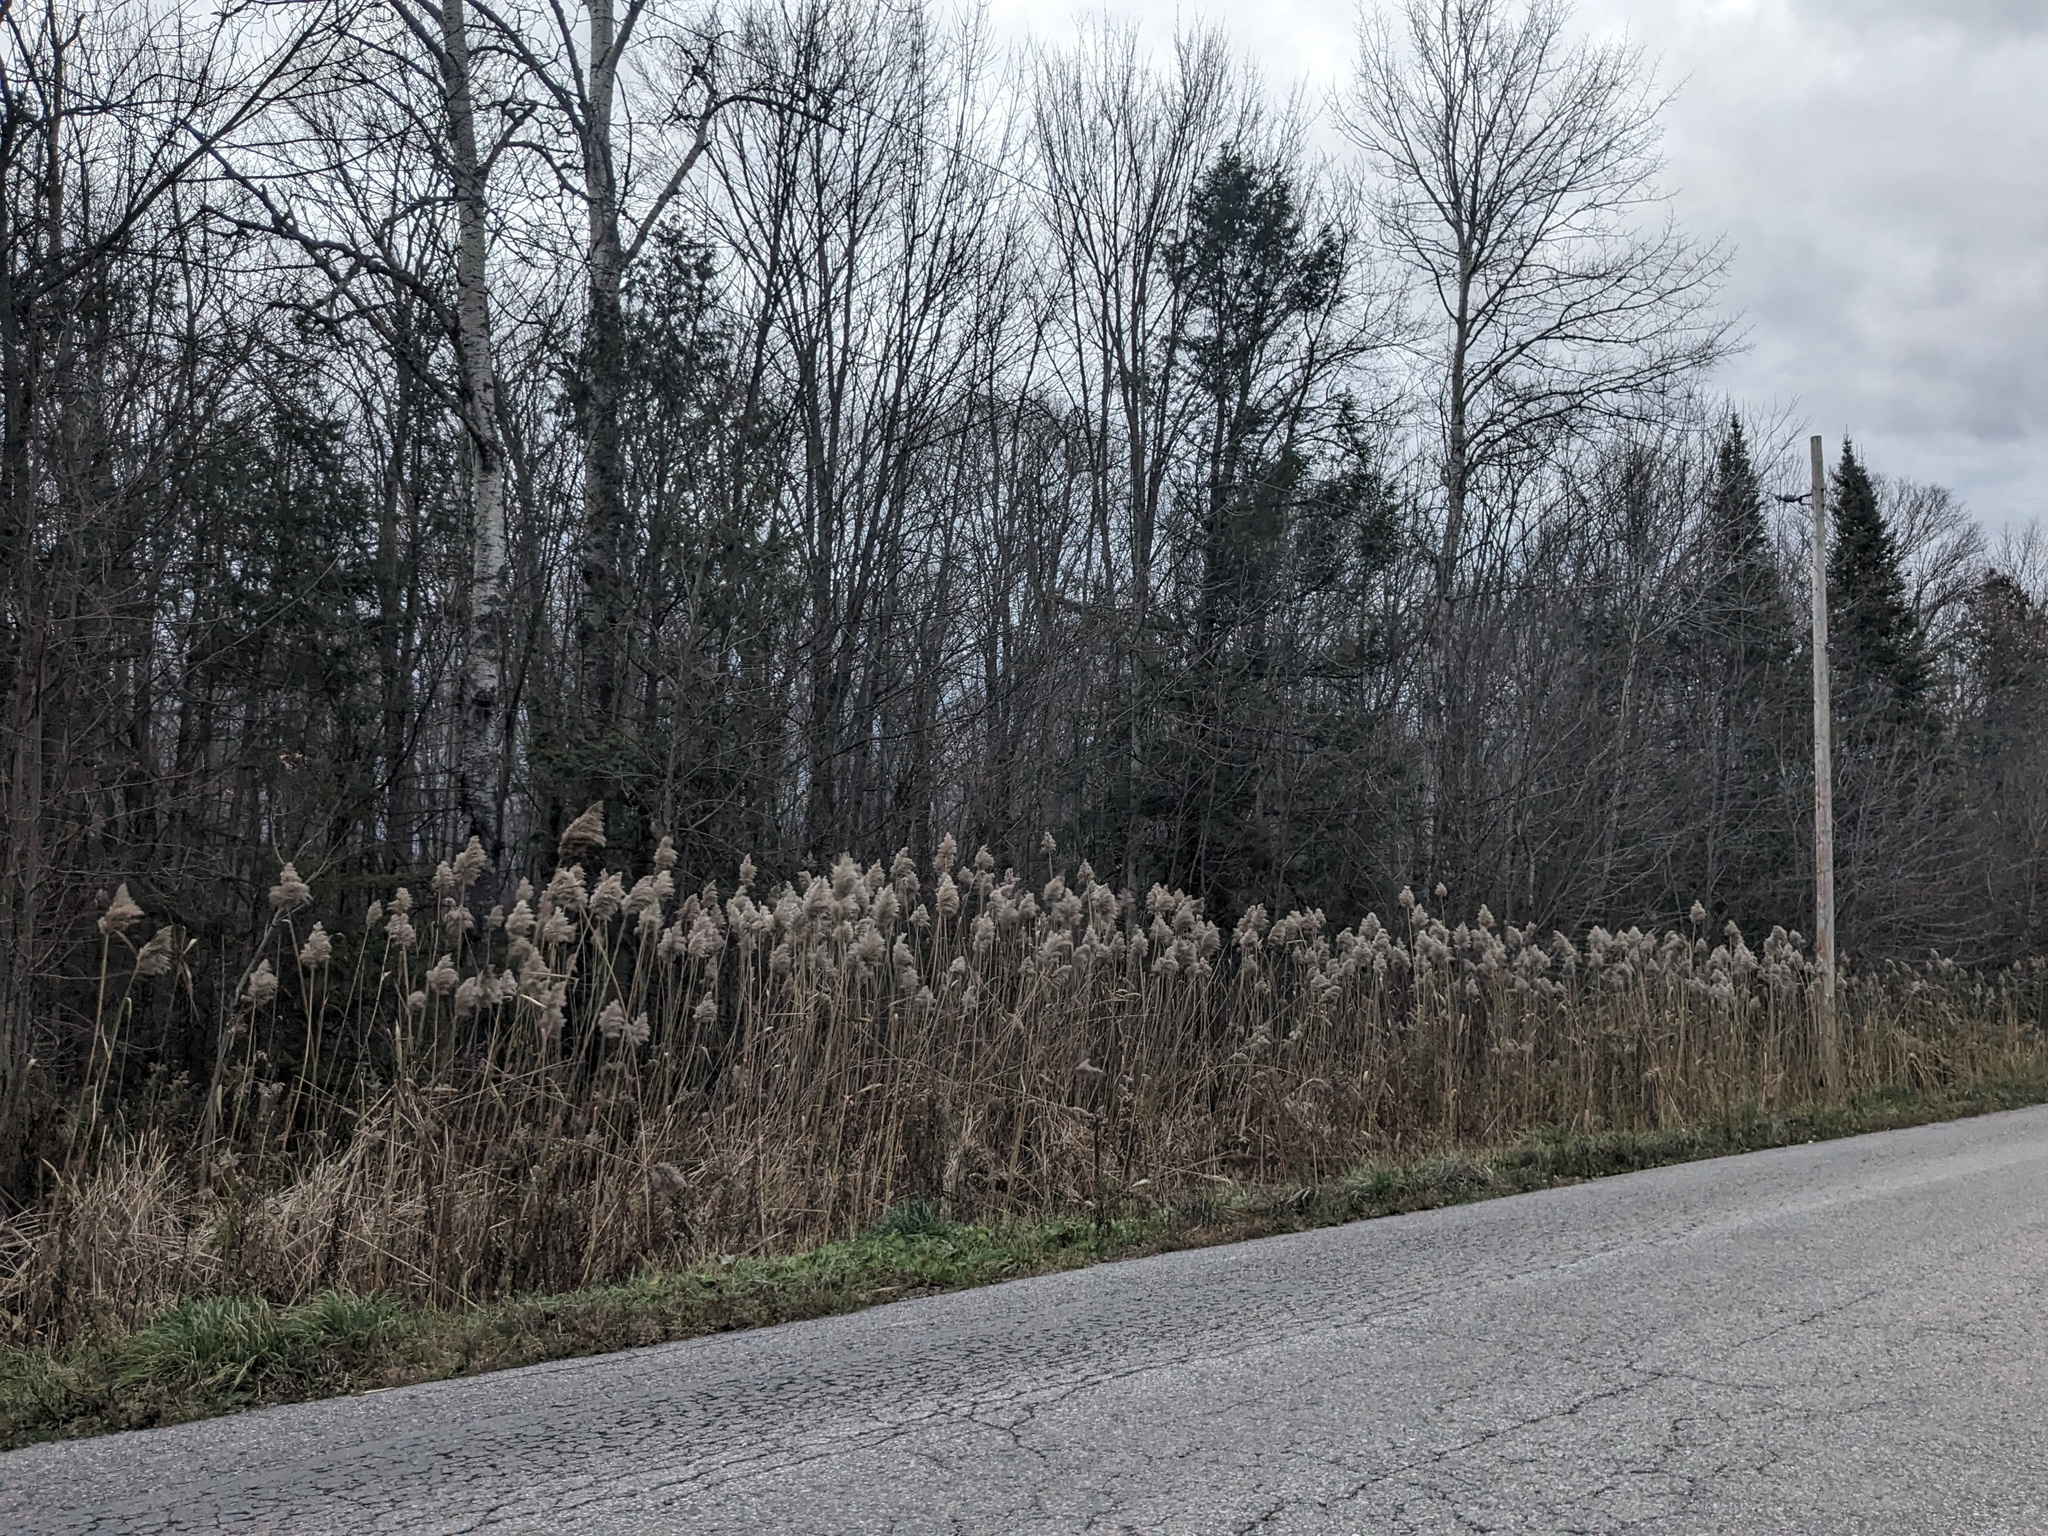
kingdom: Plantae
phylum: Tracheophyta
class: Liliopsida
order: Poales
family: Poaceae
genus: Phragmites
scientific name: Phragmites australis
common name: Common reed
